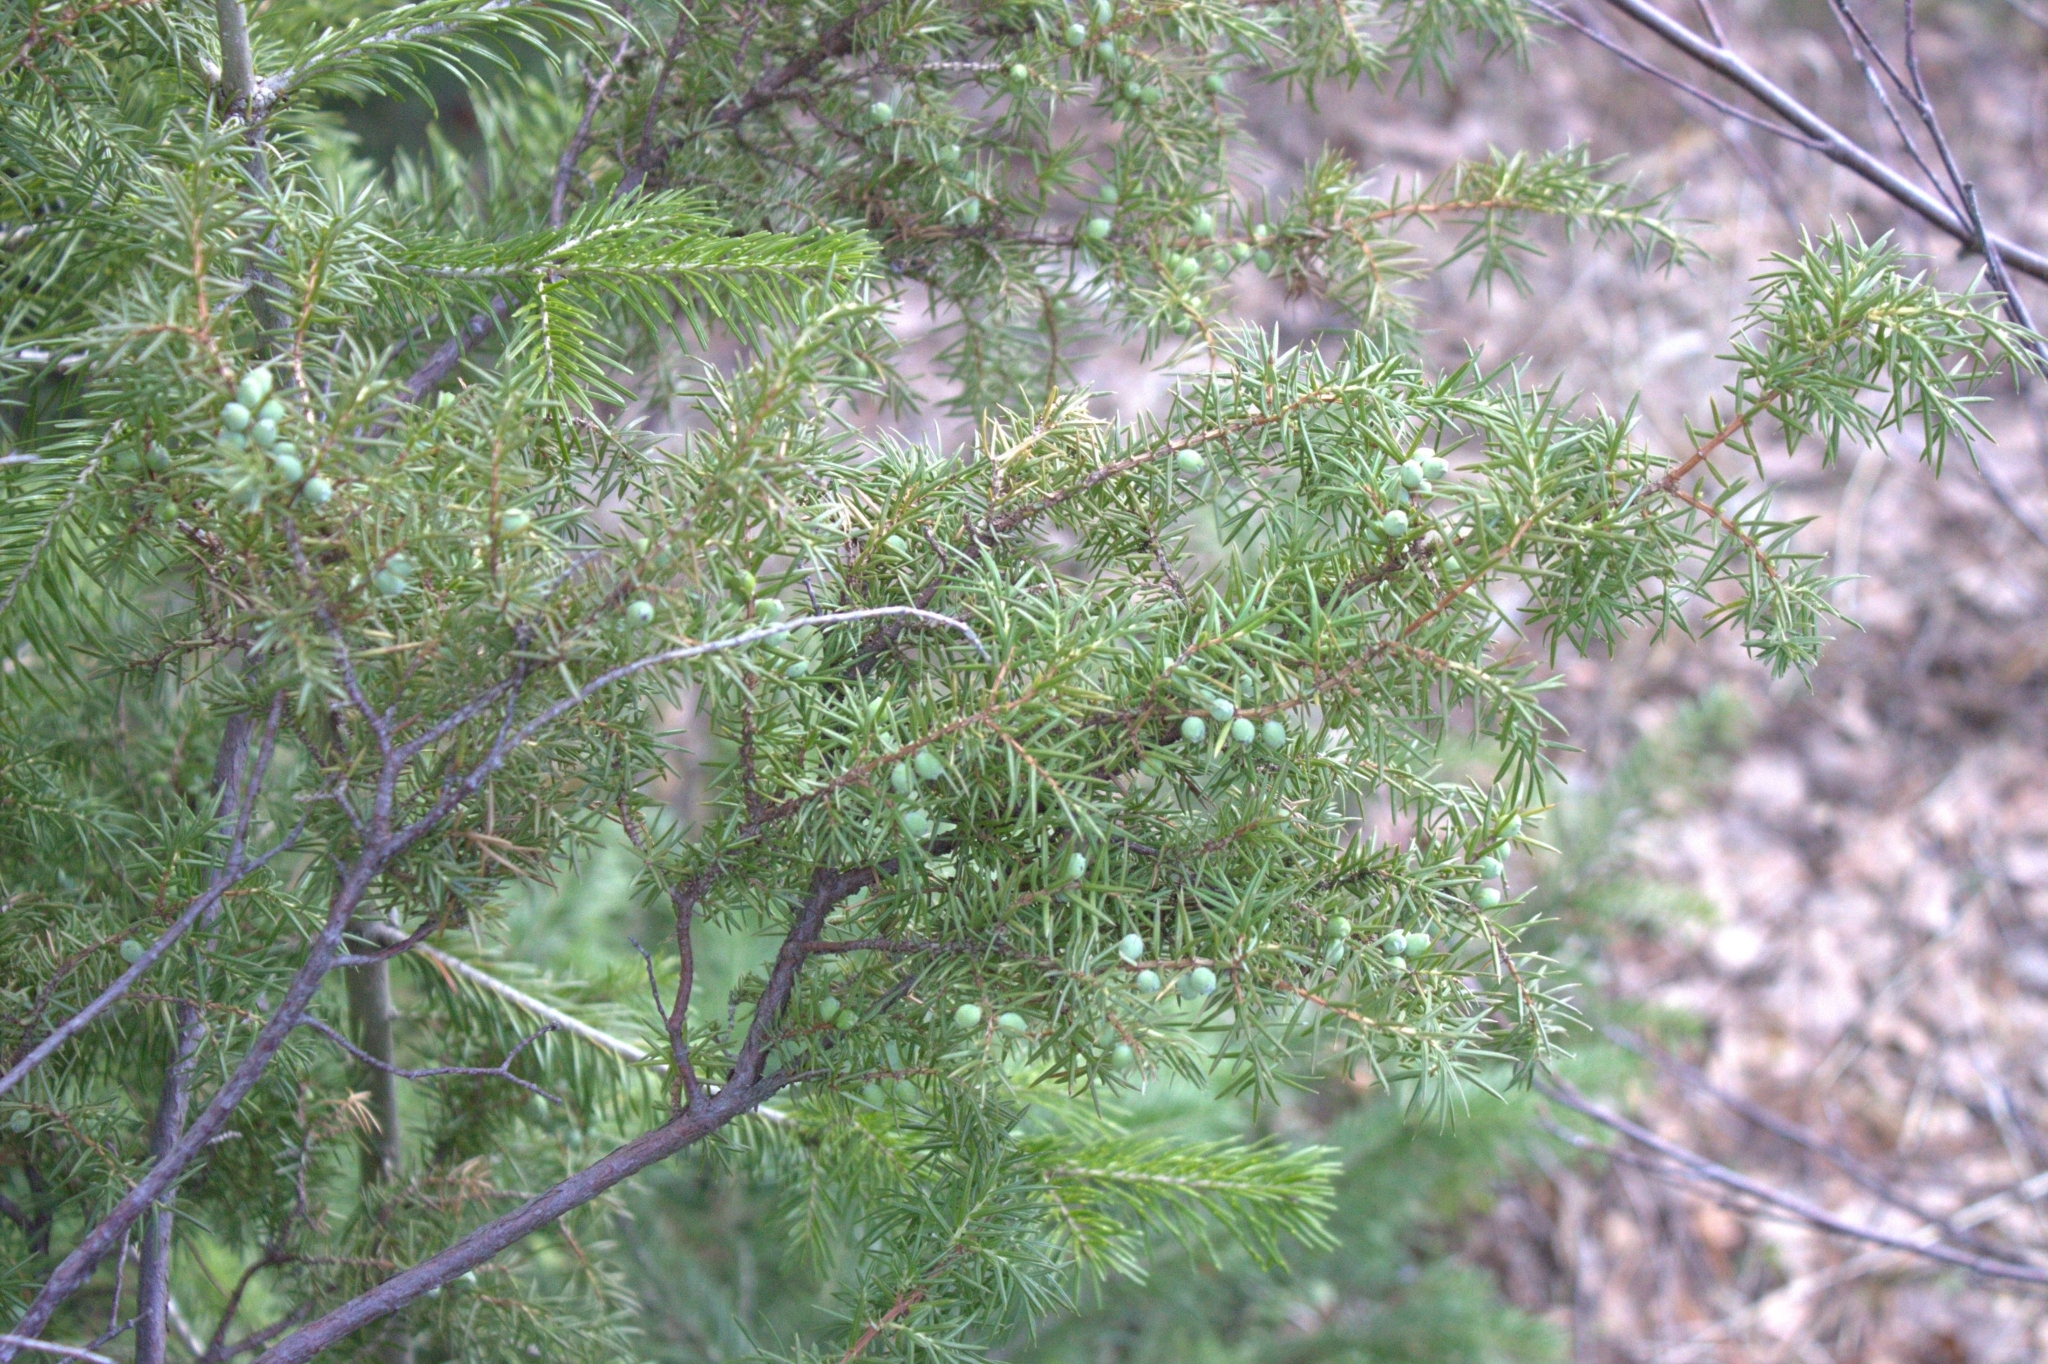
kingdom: Plantae
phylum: Tracheophyta
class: Pinopsida
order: Pinales
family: Cupressaceae
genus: Juniperus
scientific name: Juniperus communis
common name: Common juniper
